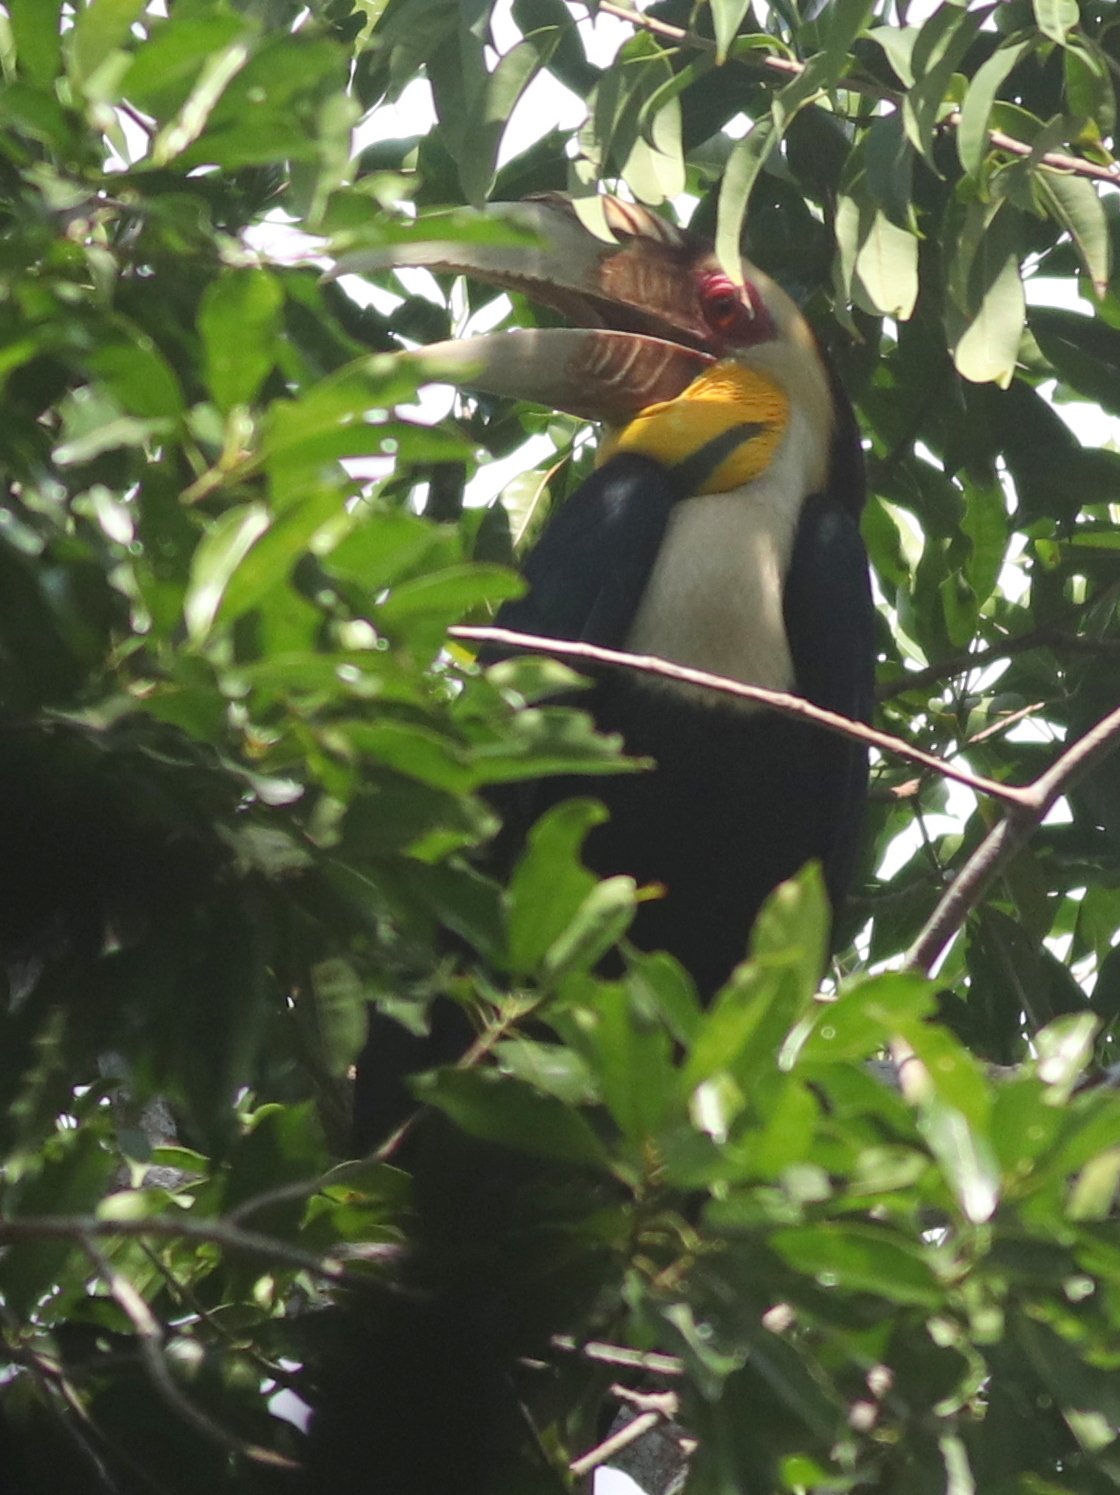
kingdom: Animalia
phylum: Chordata
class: Aves
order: Bucerotiformes
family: Bucerotidae
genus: Rhyticeros
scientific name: Rhyticeros undulatus
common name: Wreathed hornbill
